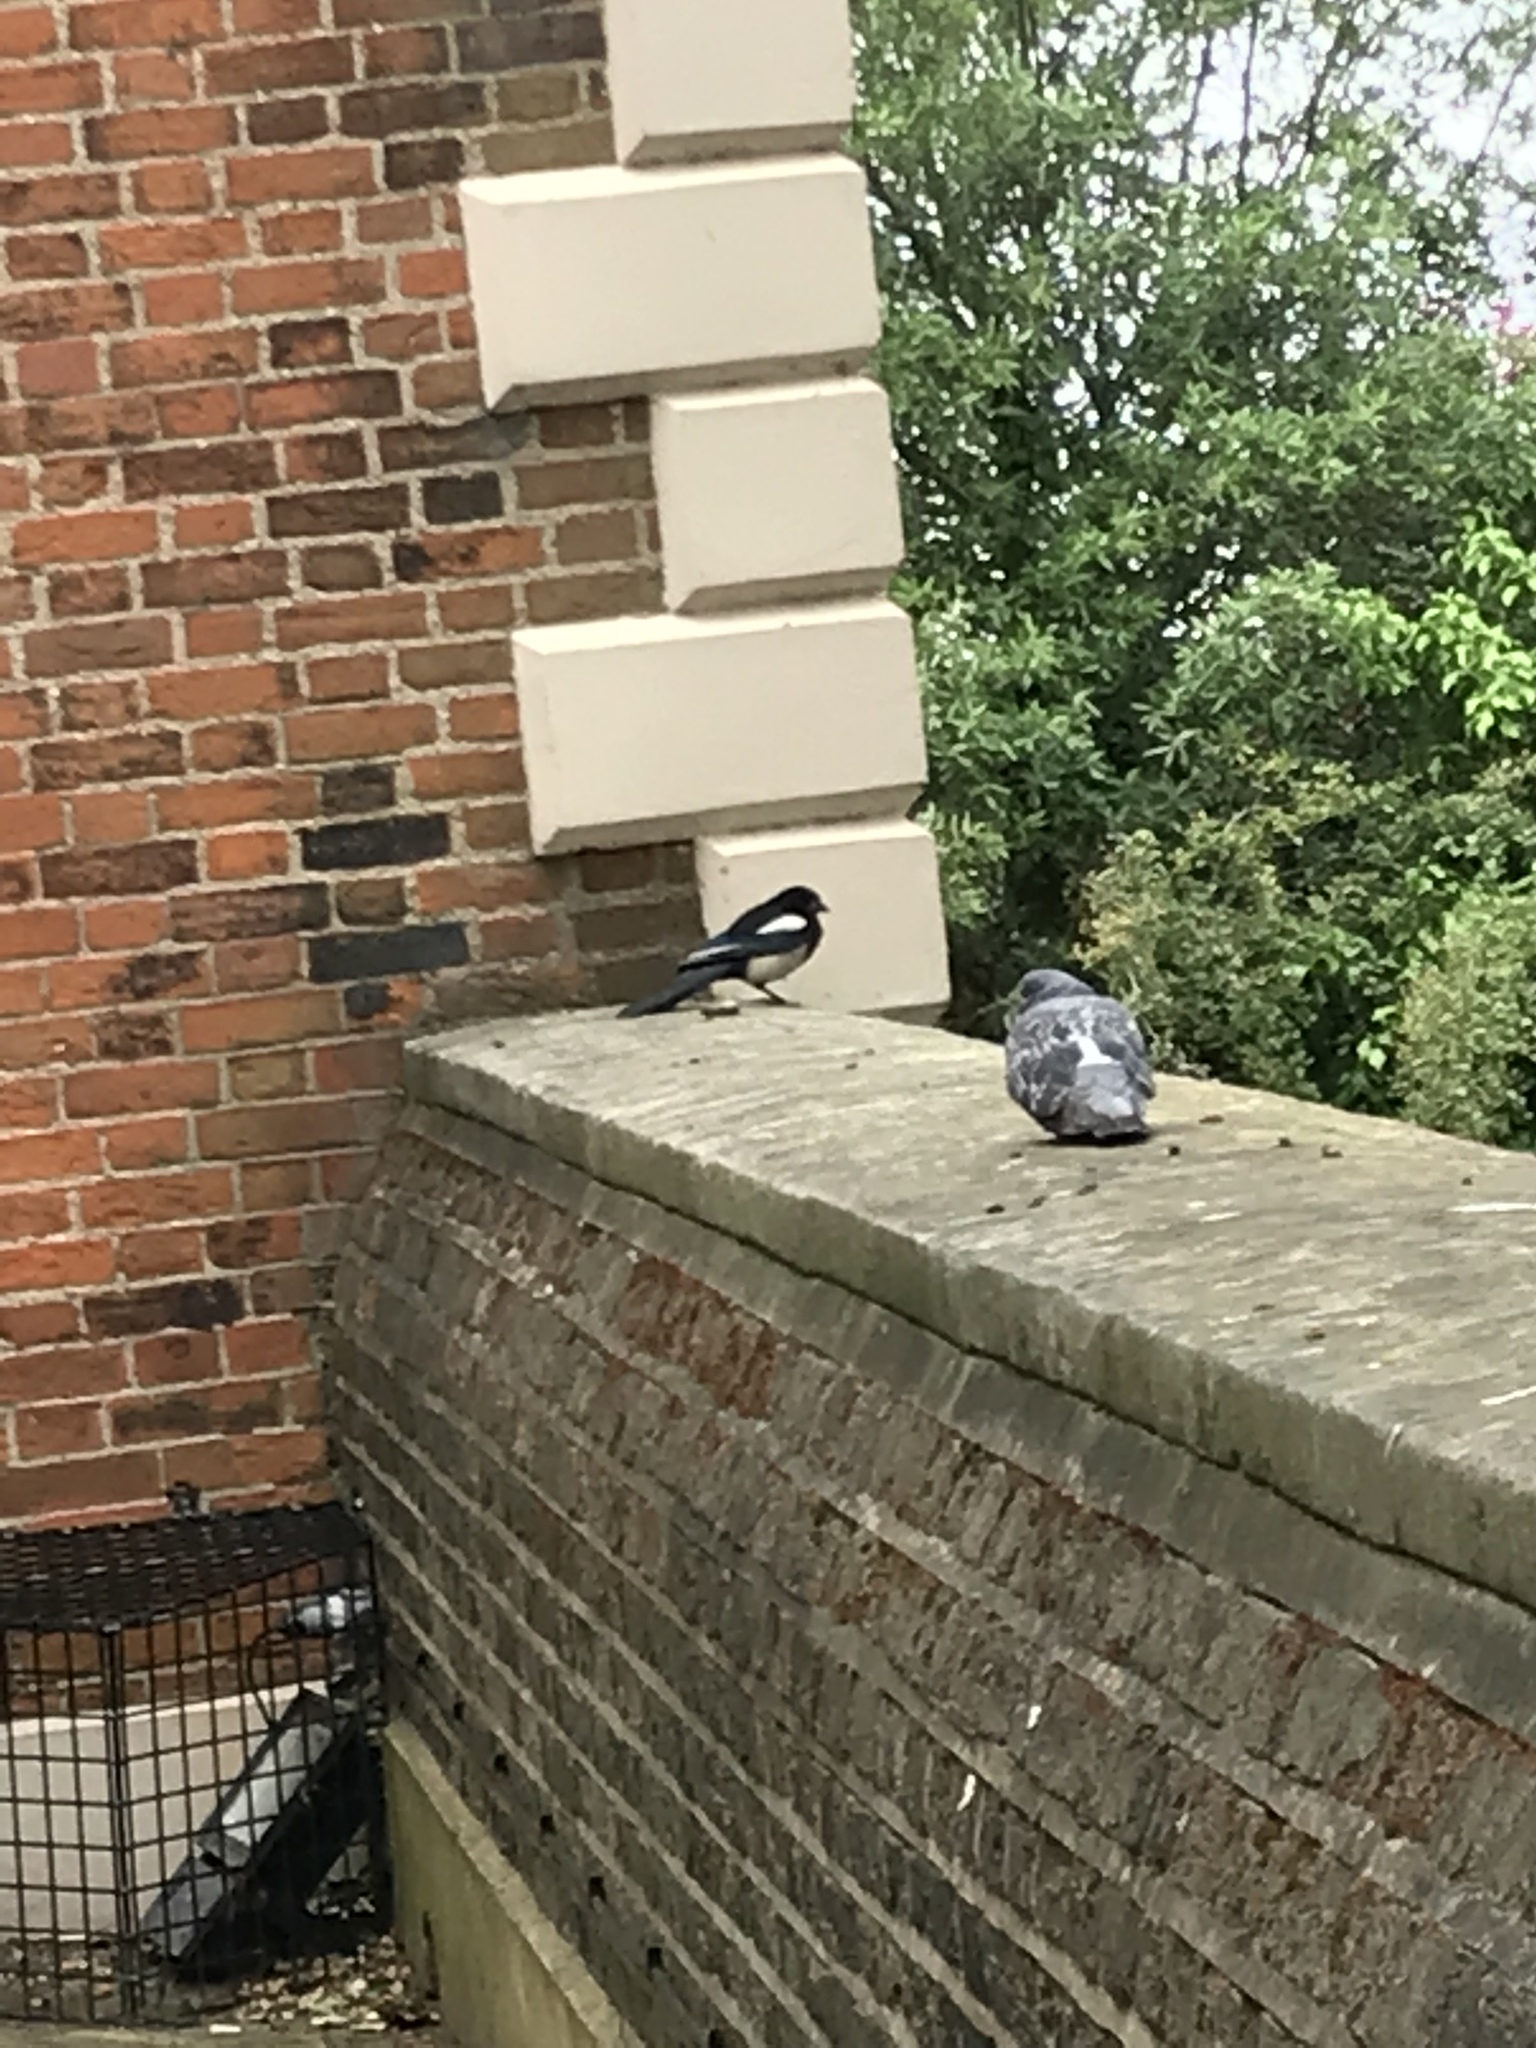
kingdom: Animalia
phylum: Chordata
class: Aves
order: Columbiformes
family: Columbidae
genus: Columba
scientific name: Columba livia
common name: Rock pigeon
